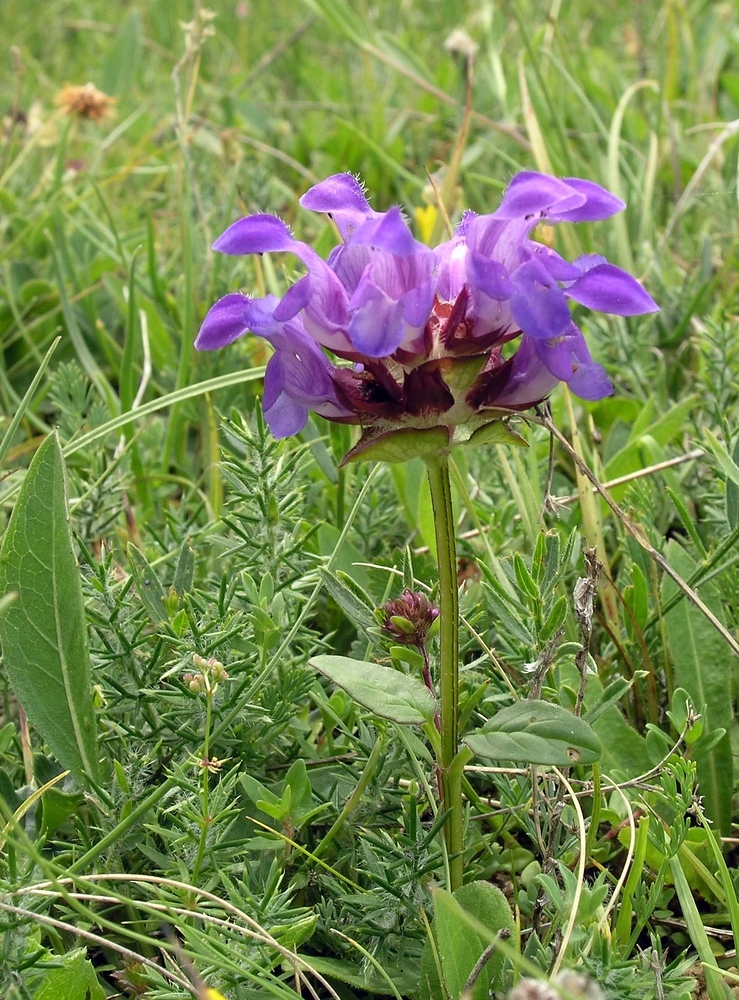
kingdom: Plantae
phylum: Tracheophyta
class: Magnoliopsida
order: Lamiales
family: Lamiaceae
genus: Prunella
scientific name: Prunella grandiflora
